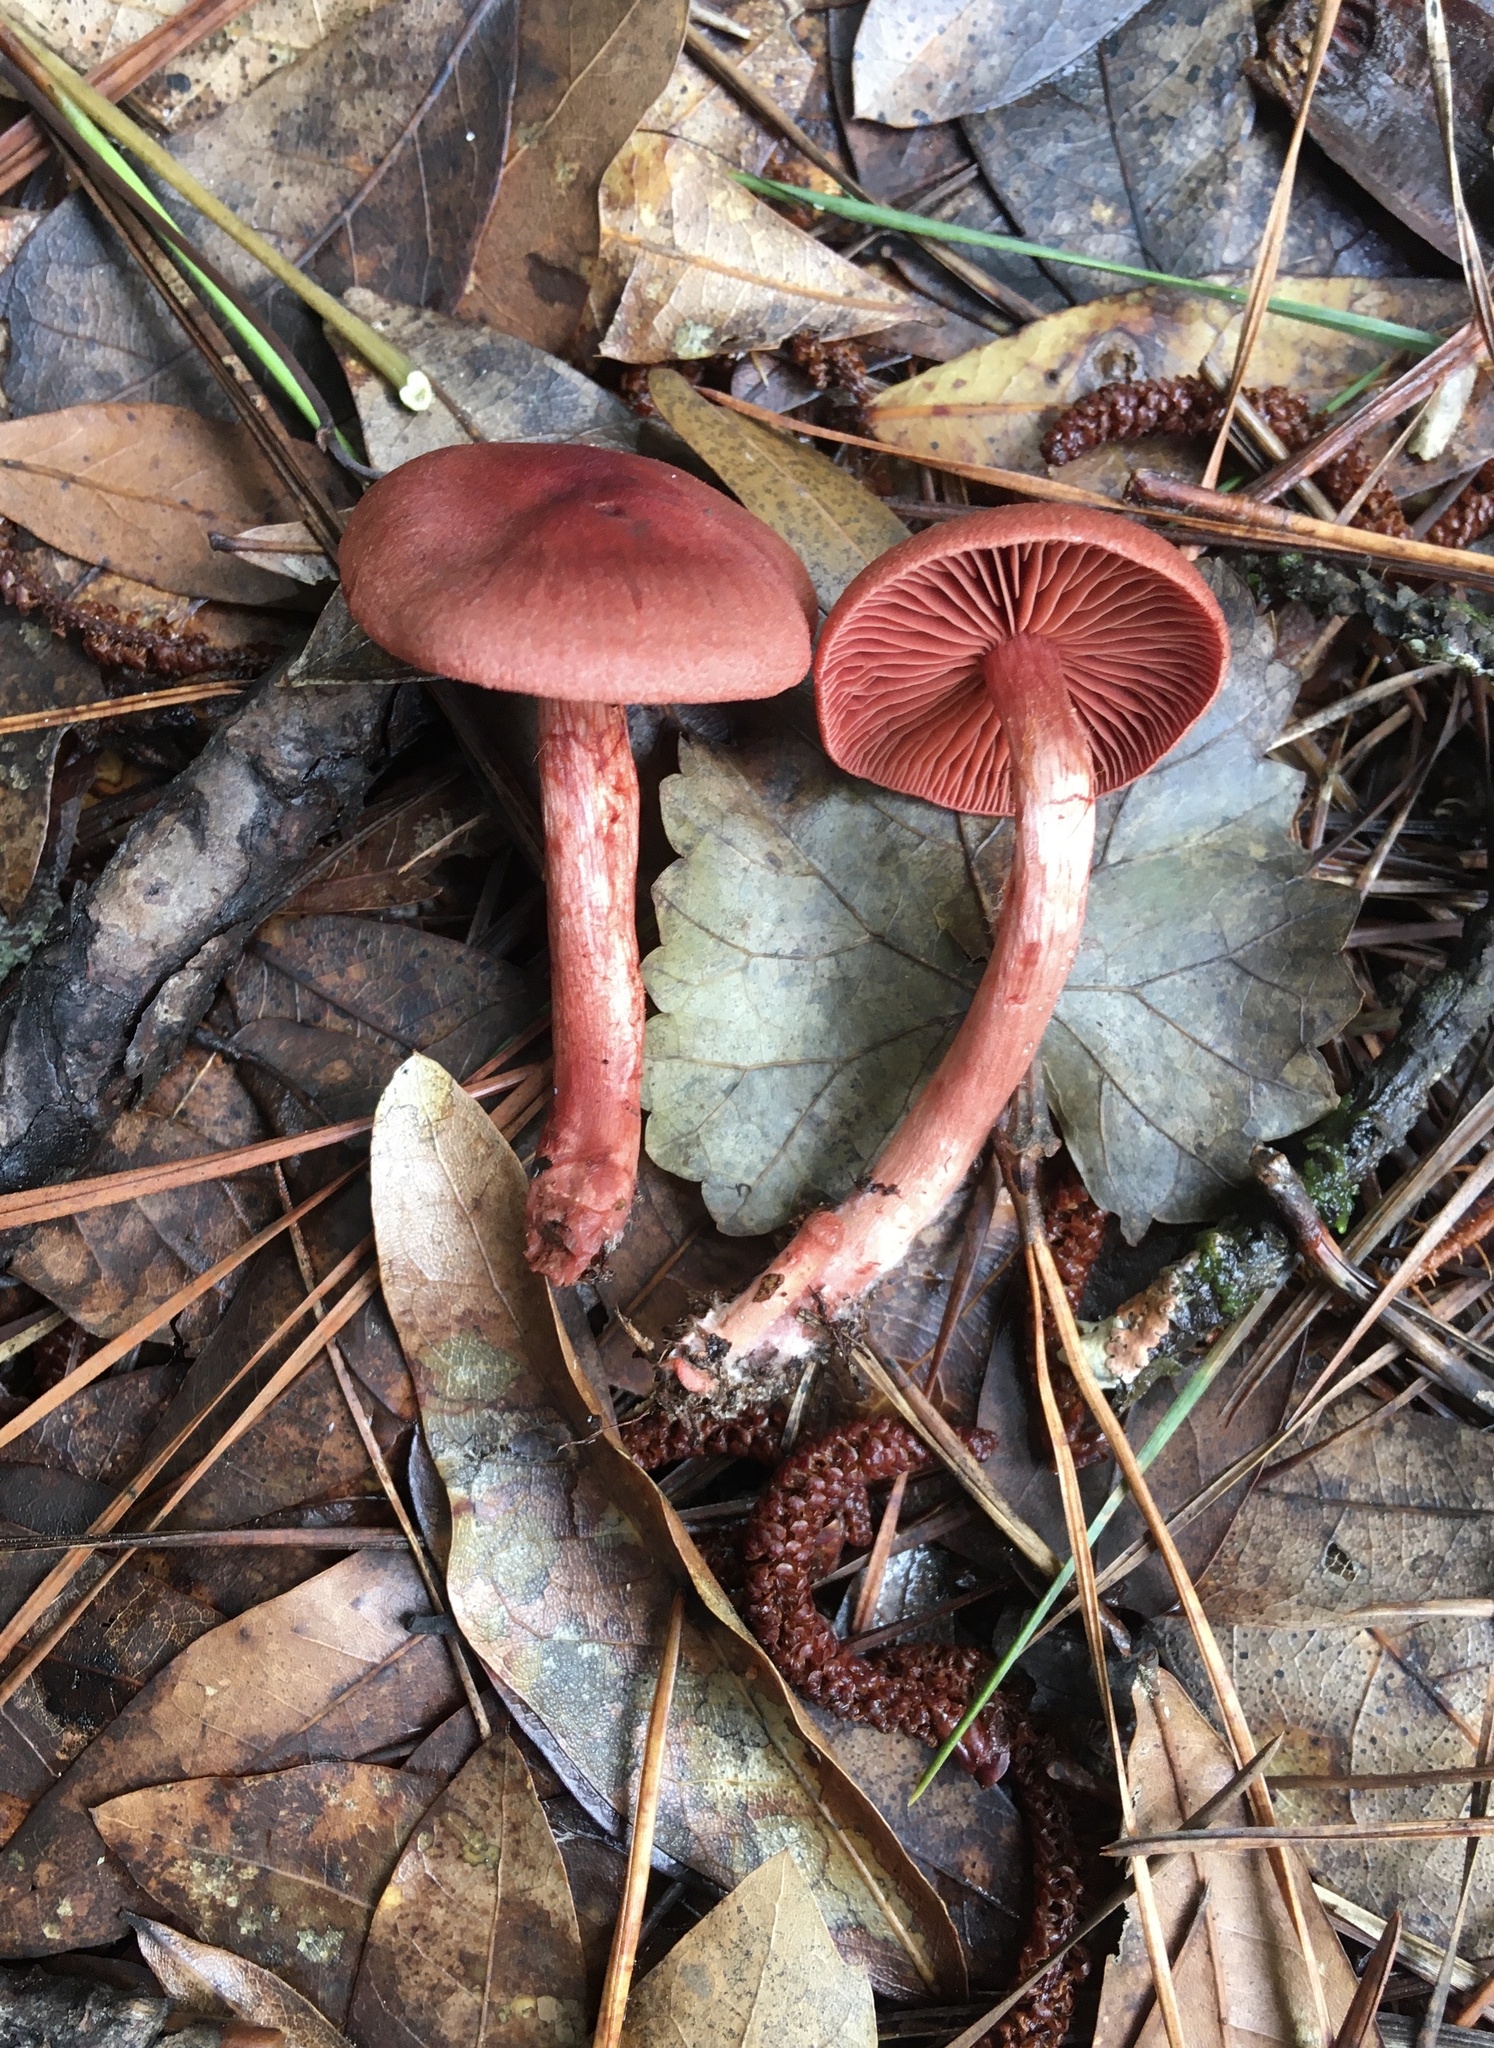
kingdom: Fungi
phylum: Basidiomycota
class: Agaricomycetes
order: Agaricales
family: Cortinariaceae
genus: Cortinarius
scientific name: Cortinarius marylandensis
